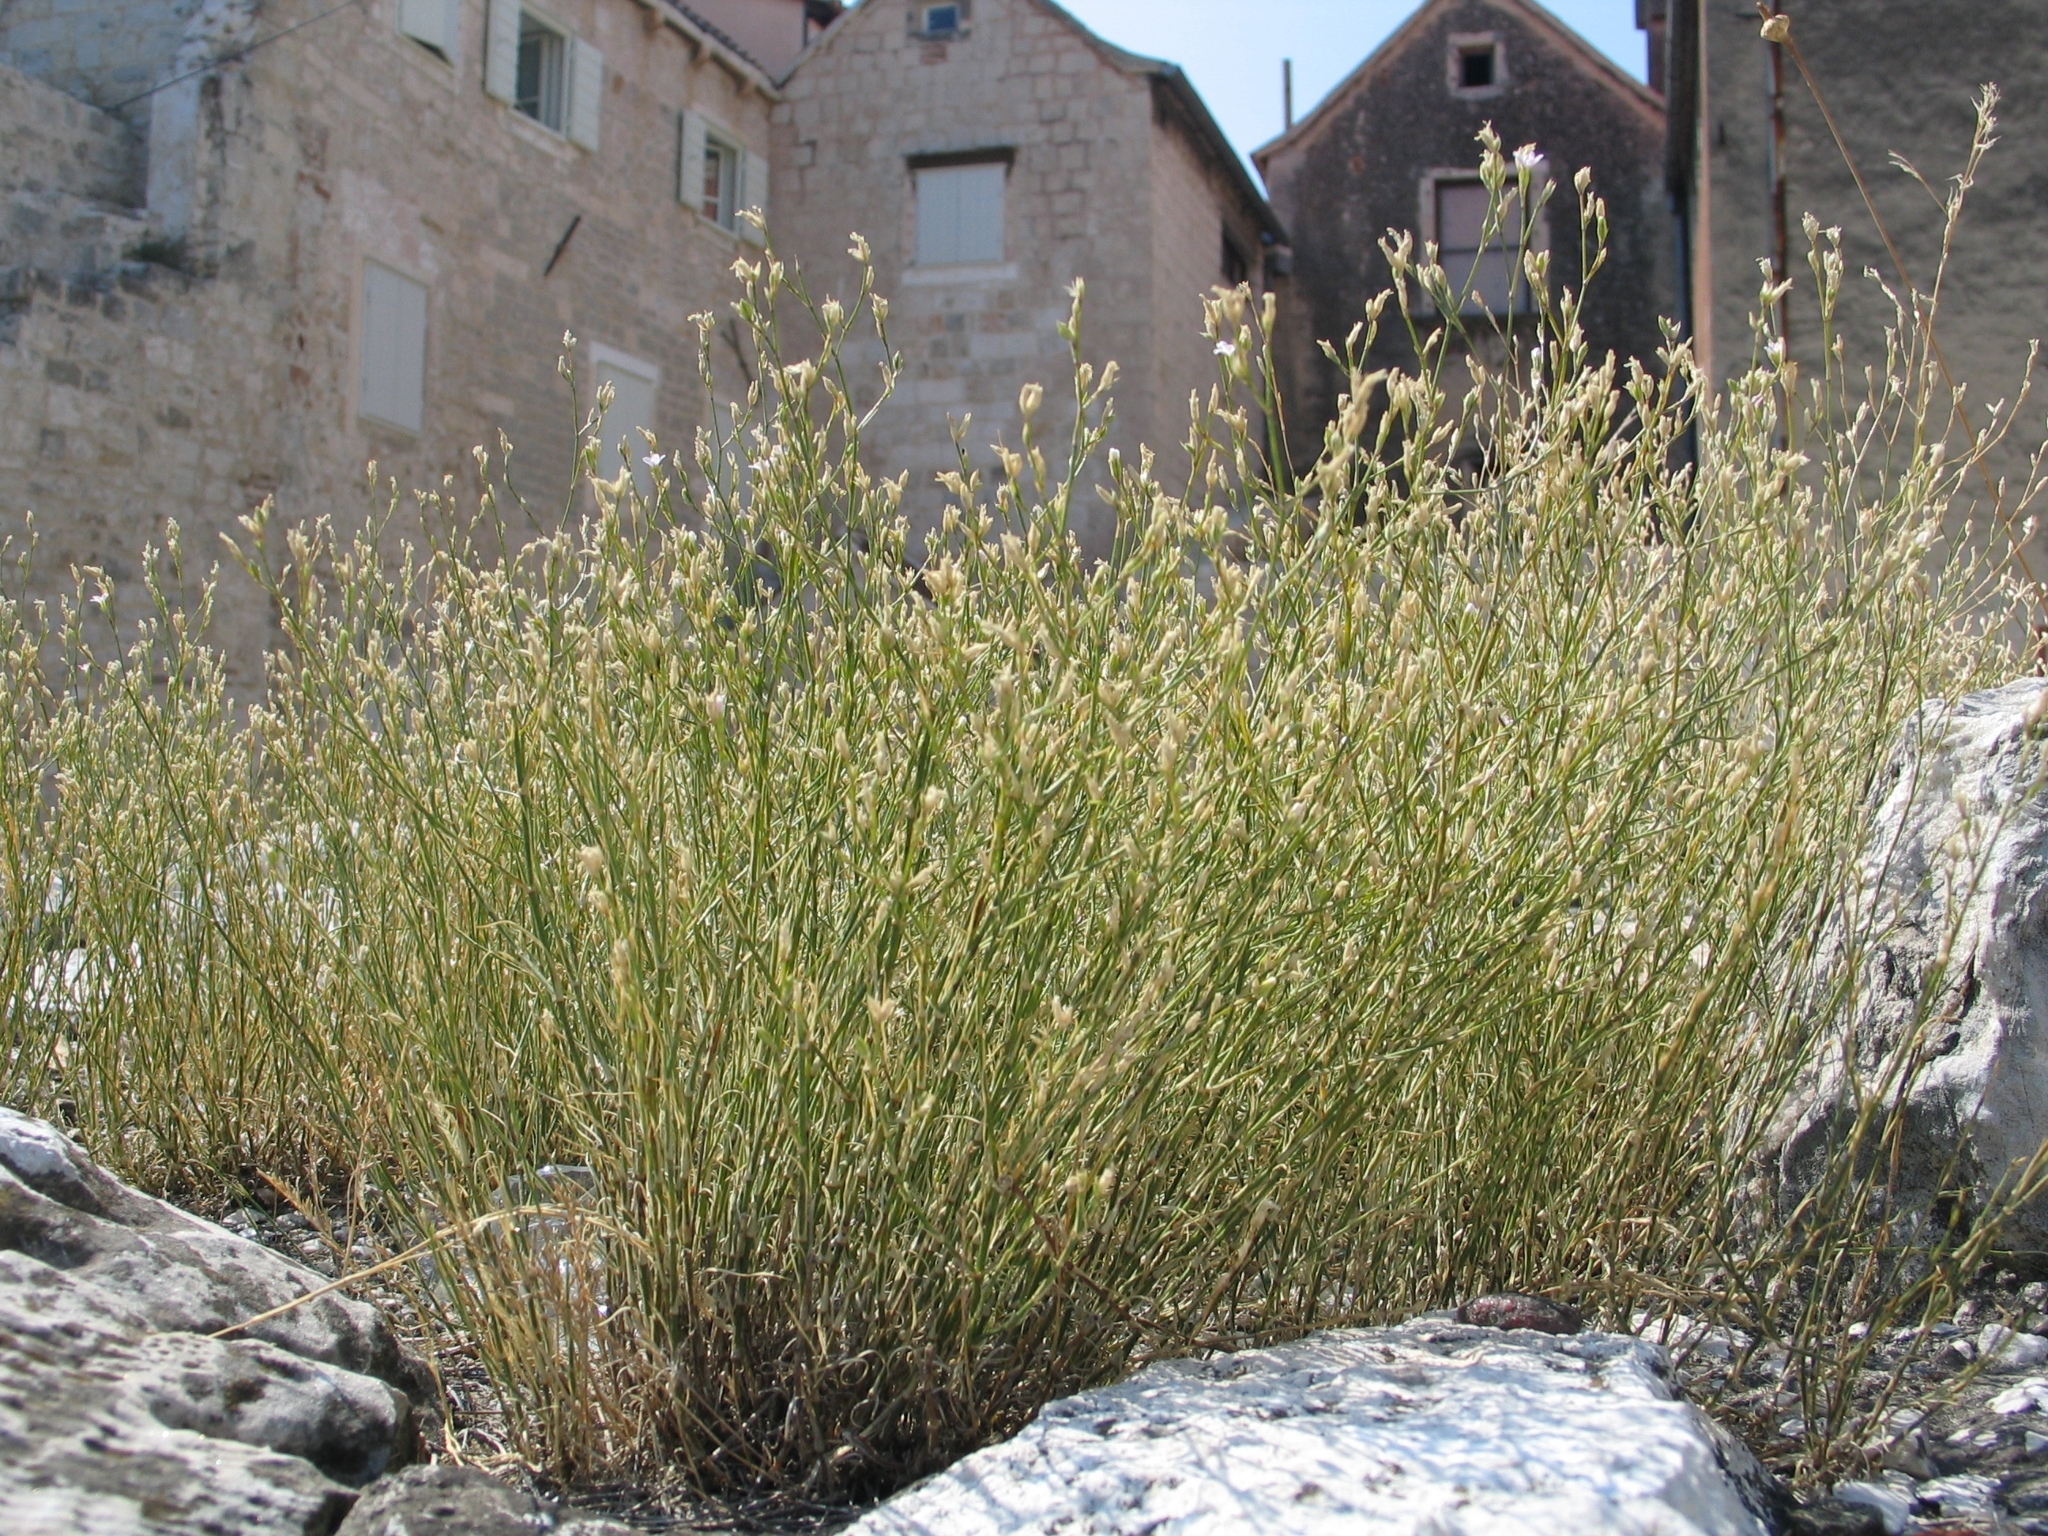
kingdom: Plantae
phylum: Tracheophyta
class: Magnoliopsida
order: Caryophyllales
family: Caryophyllaceae
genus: Petrorhagia
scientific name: Petrorhagia saxifraga
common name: Tunicflower
